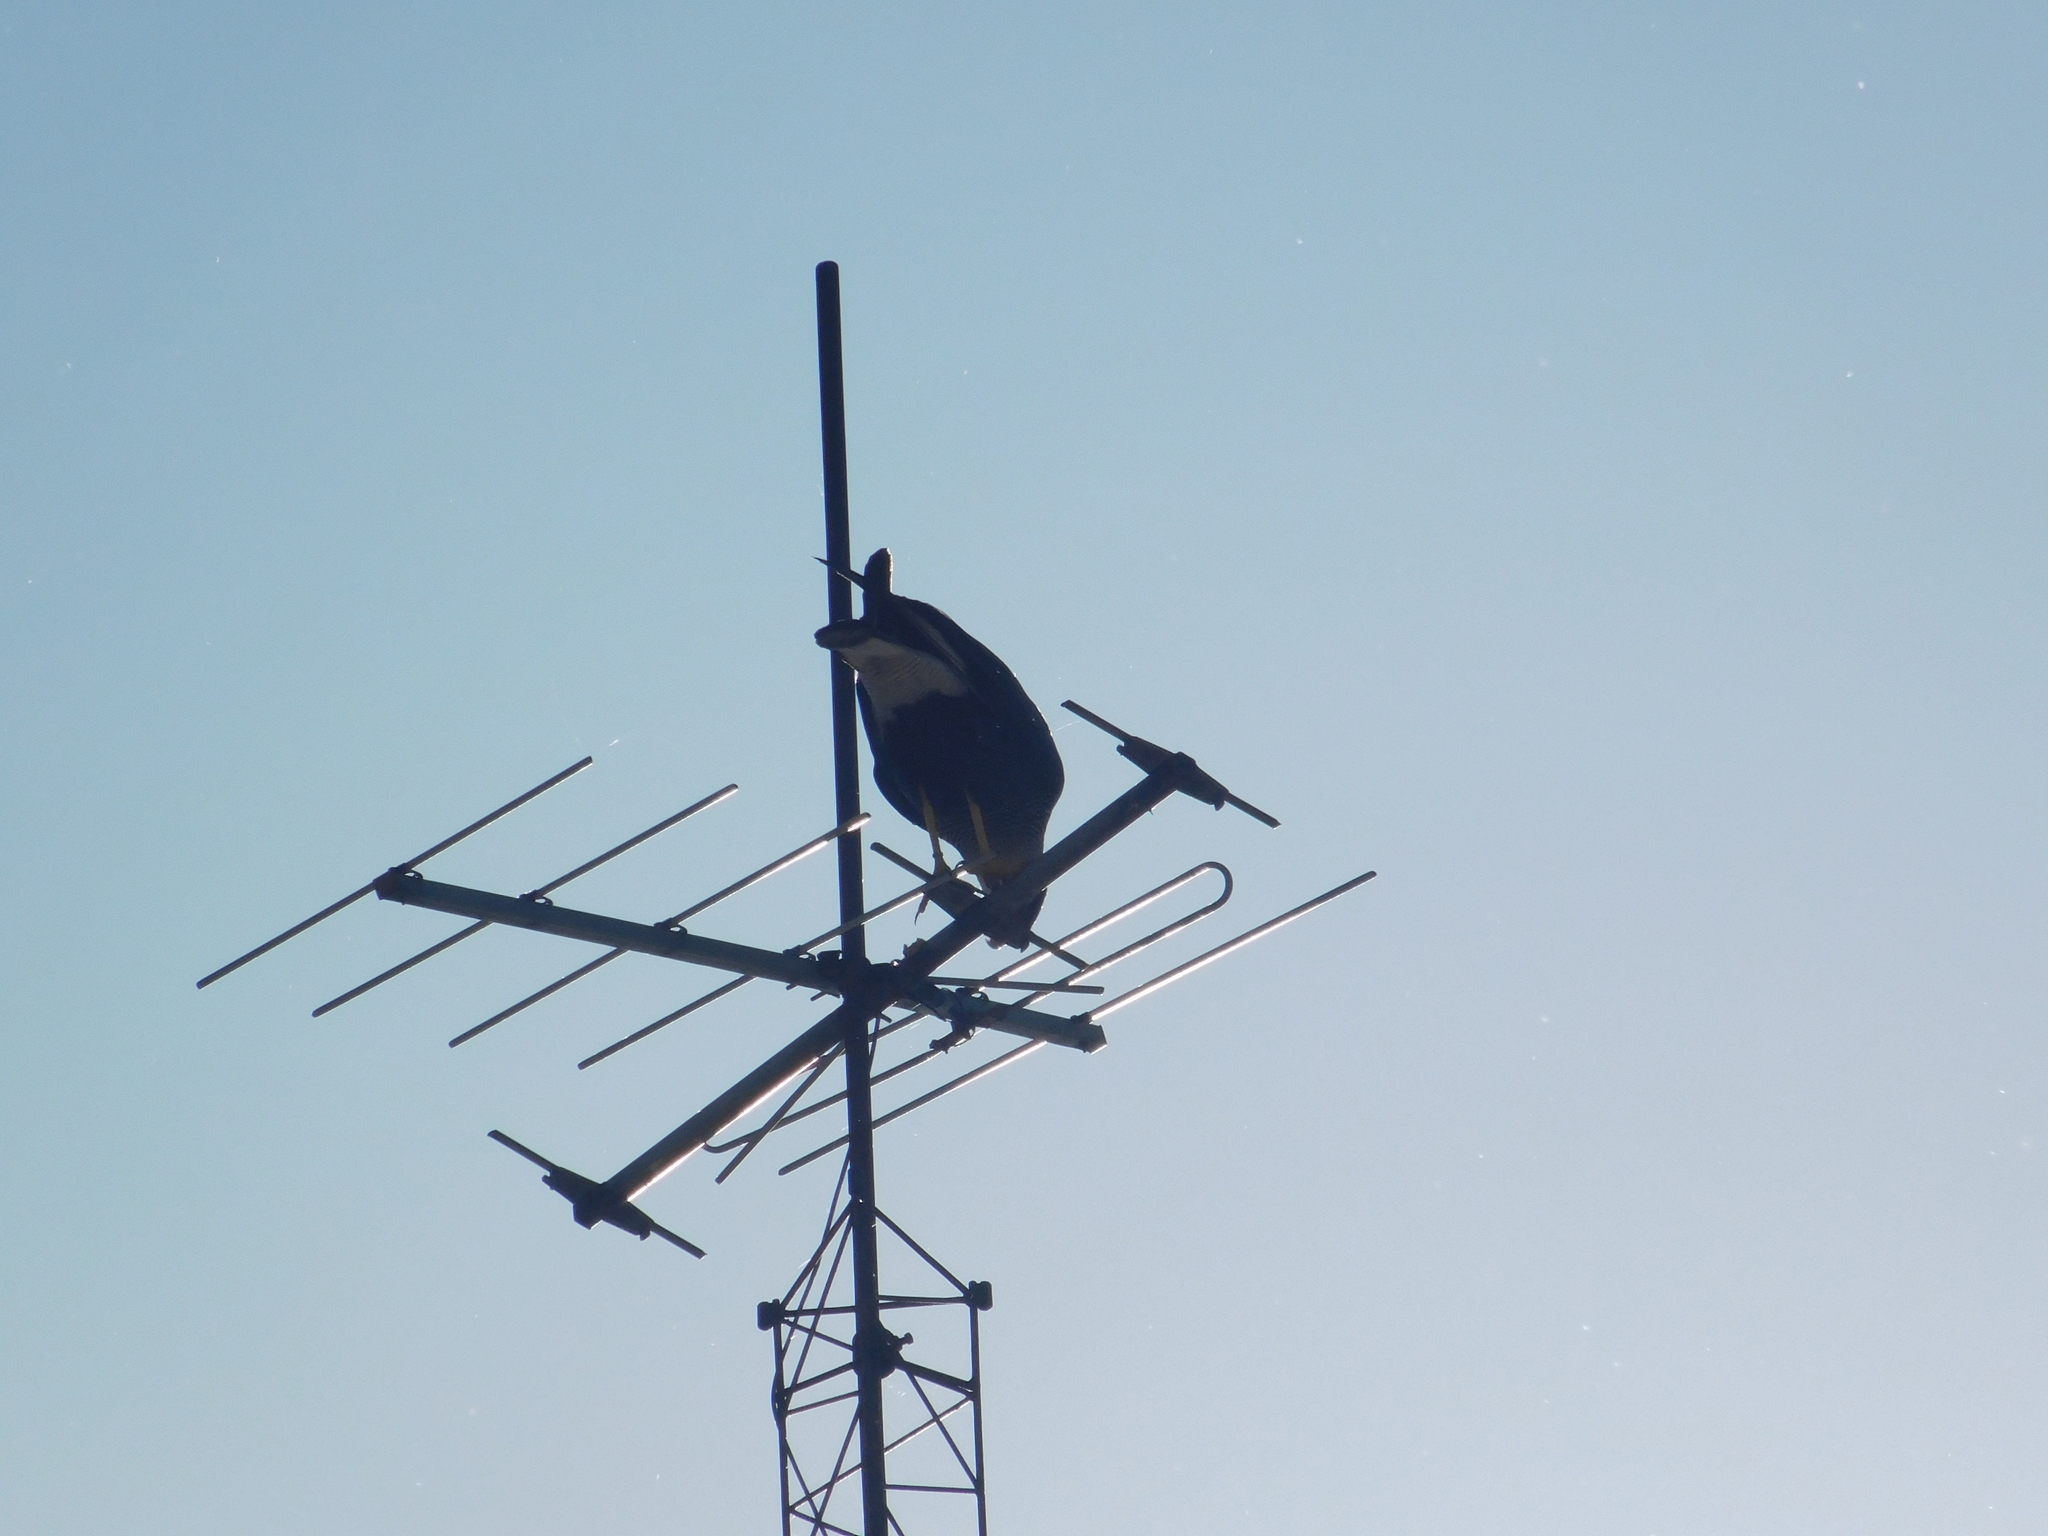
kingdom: Animalia
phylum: Chordata
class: Aves
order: Falconiformes
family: Falconidae
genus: Caracara
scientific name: Caracara plancus
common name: Southern caracara
